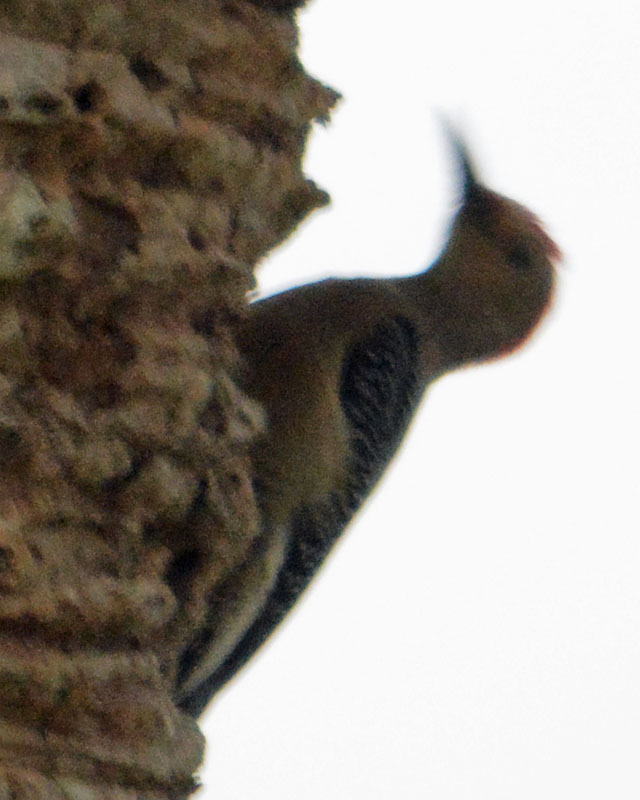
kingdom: Animalia
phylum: Chordata
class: Aves
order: Piciformes
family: Picidae
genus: Melanerpes
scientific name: Melanerpes aurifrons
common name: Golden-fronted woodpecker
